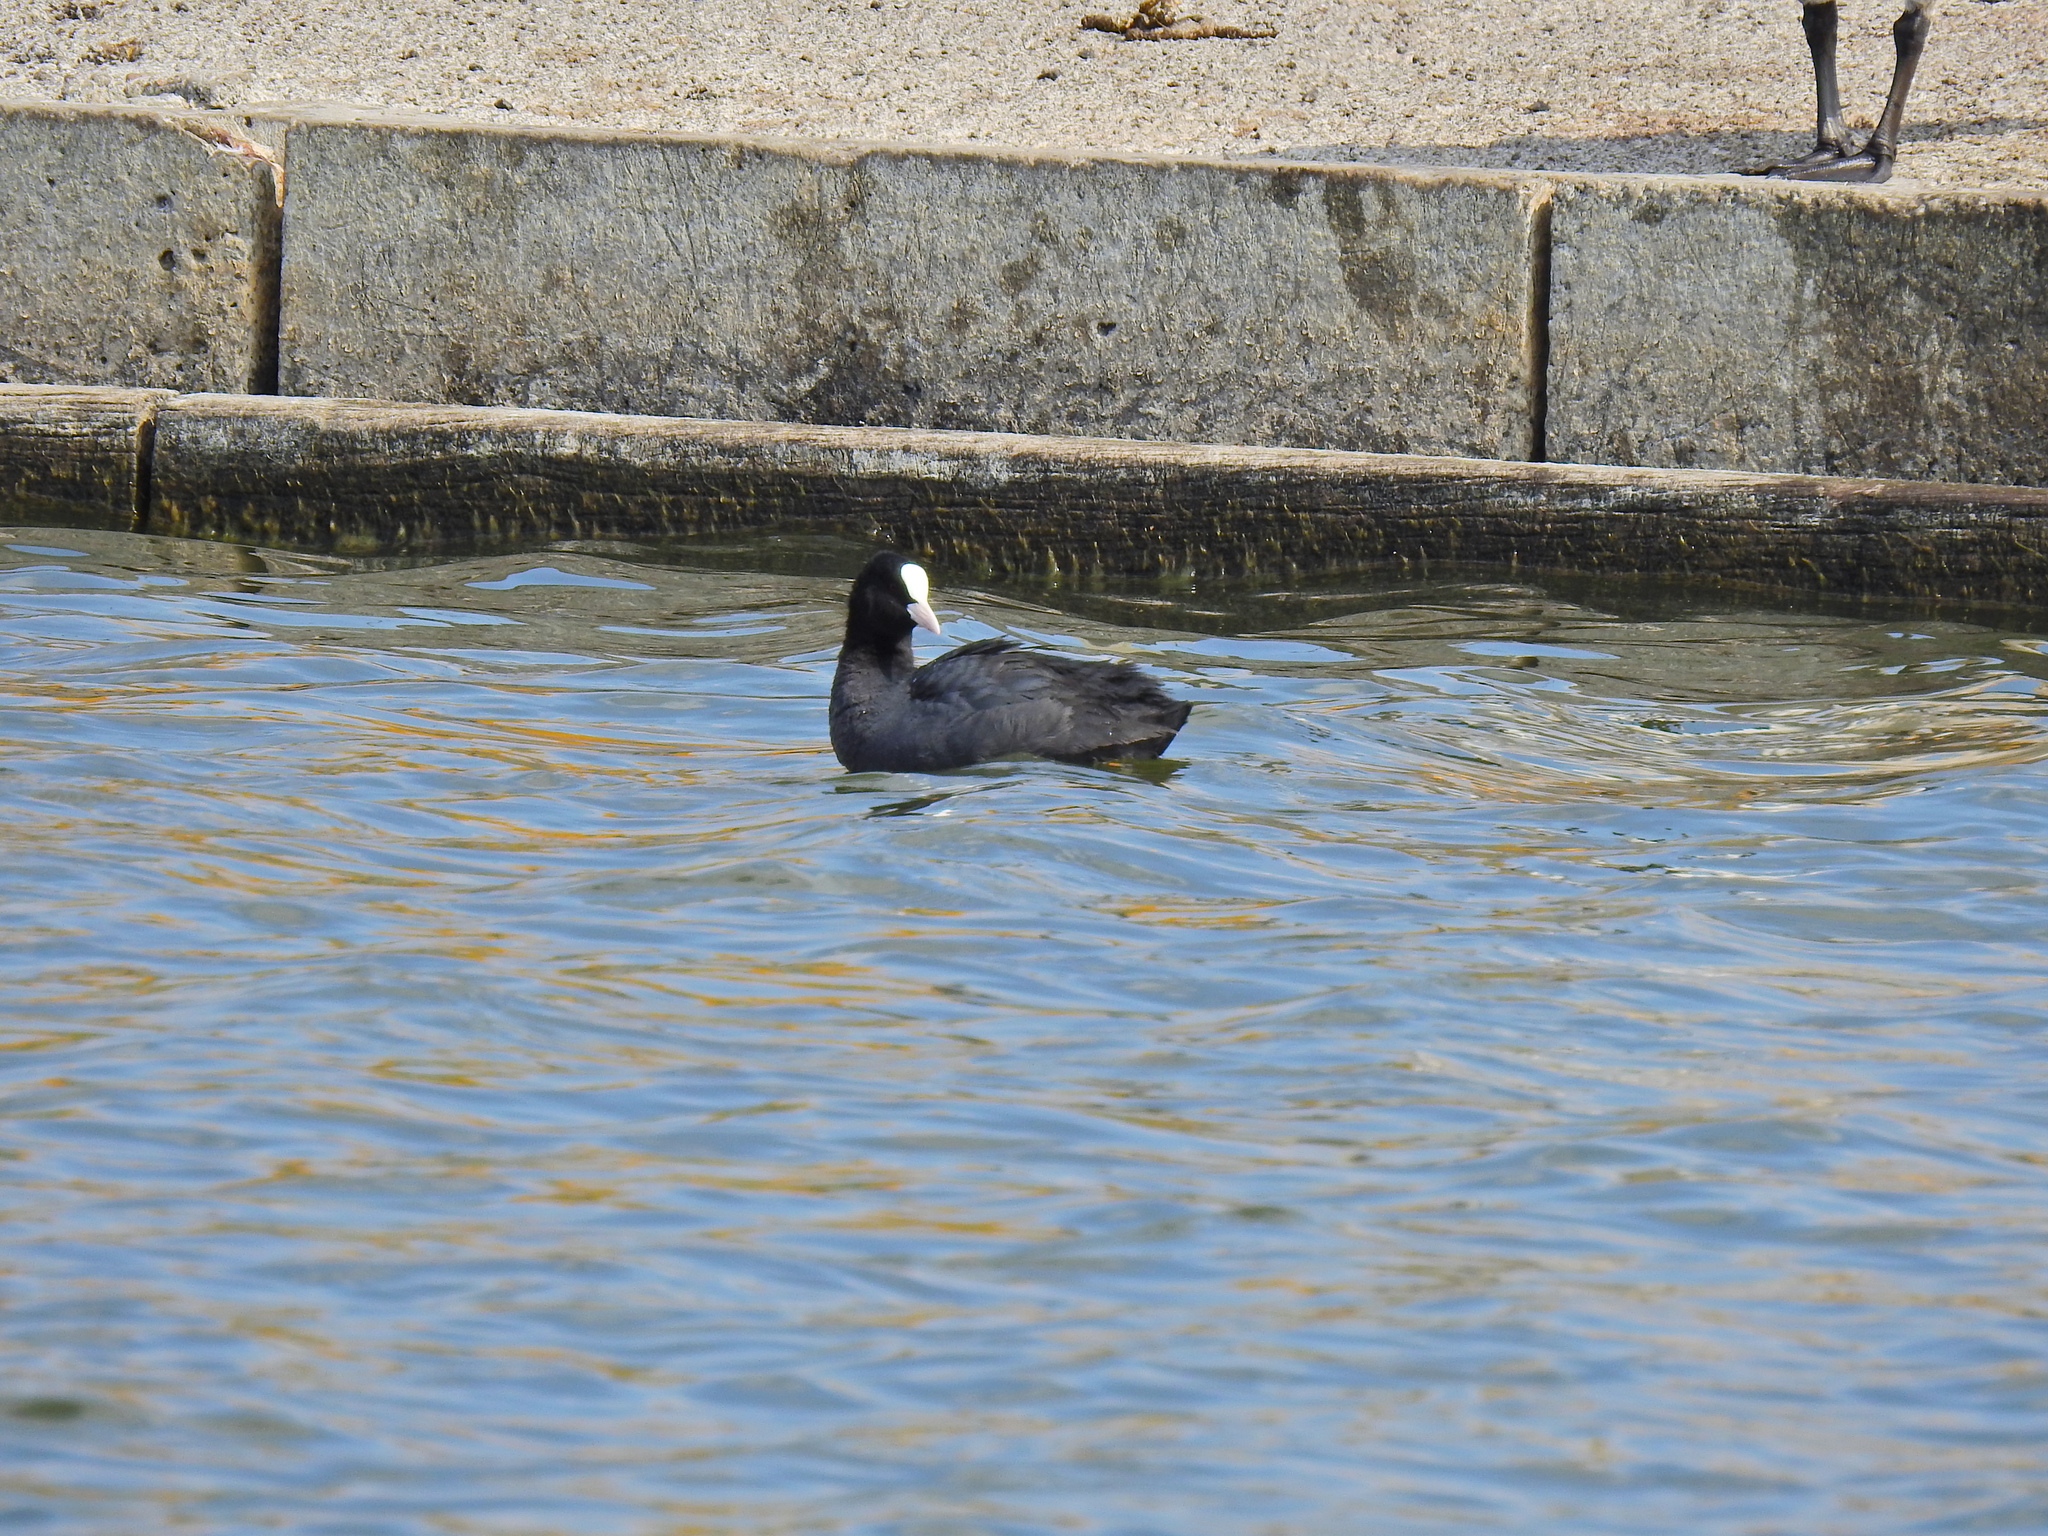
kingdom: Animalia
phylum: Chordata
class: Aves
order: Gruiformes
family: Rallidae
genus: Fulica
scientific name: Fulica atra
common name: Eurasian coot
